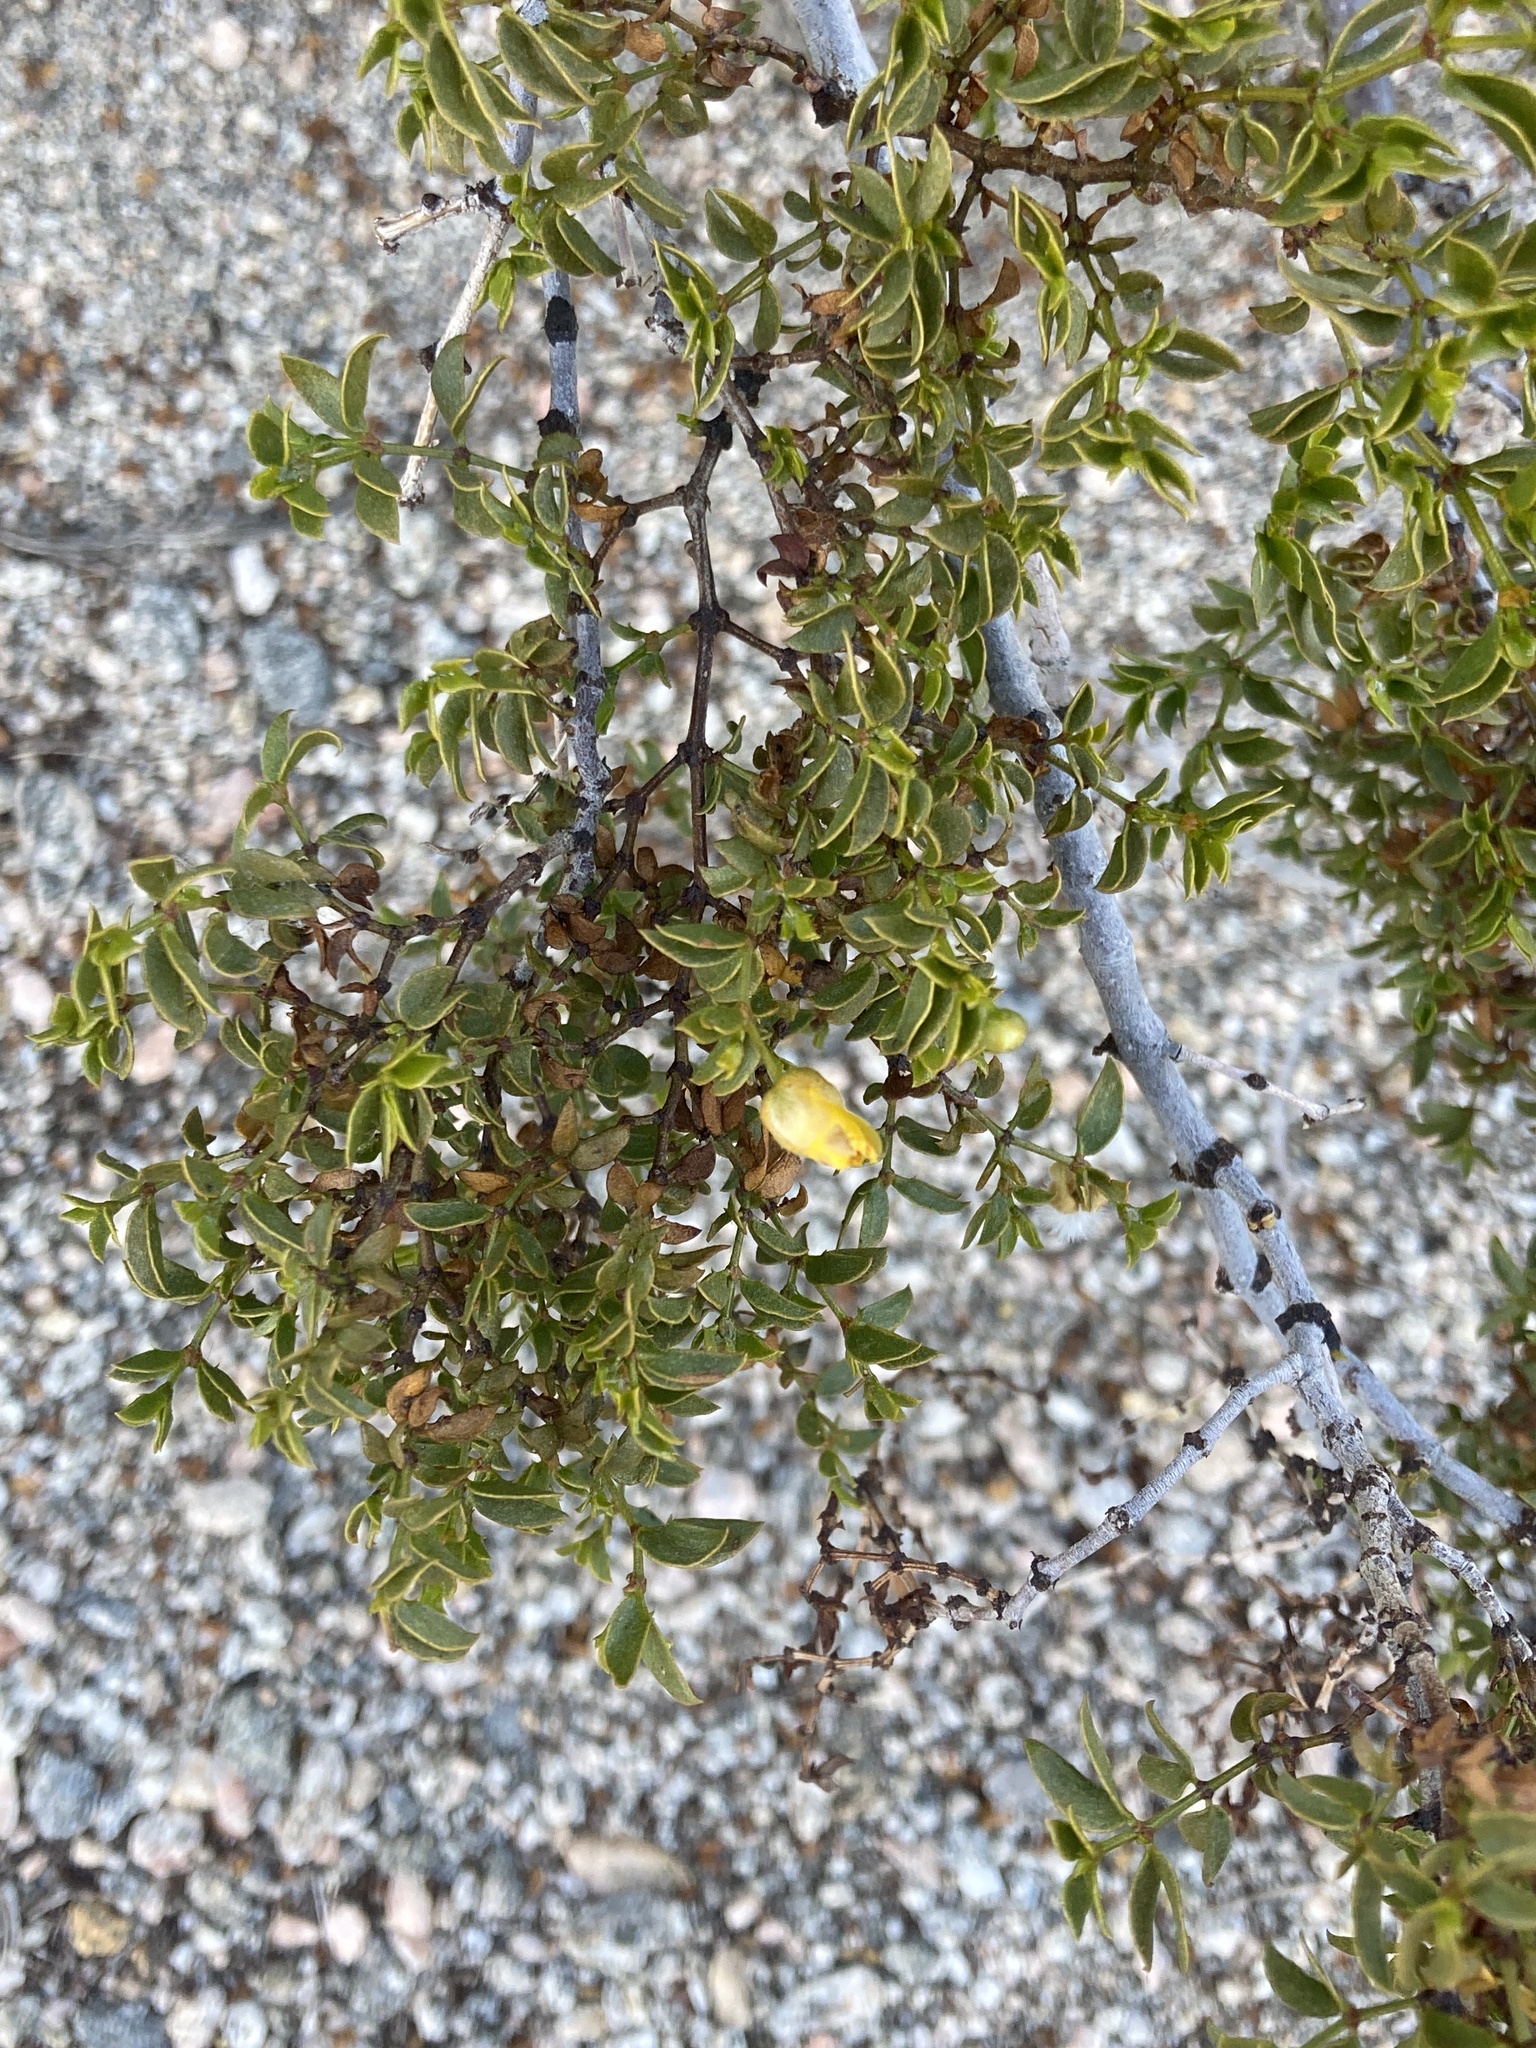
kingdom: Plantae
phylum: Tracheophyta
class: Magnoliopsida
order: Zygophyllales
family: Zygophyllaceae
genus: Larrea
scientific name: Larrea tridentata
